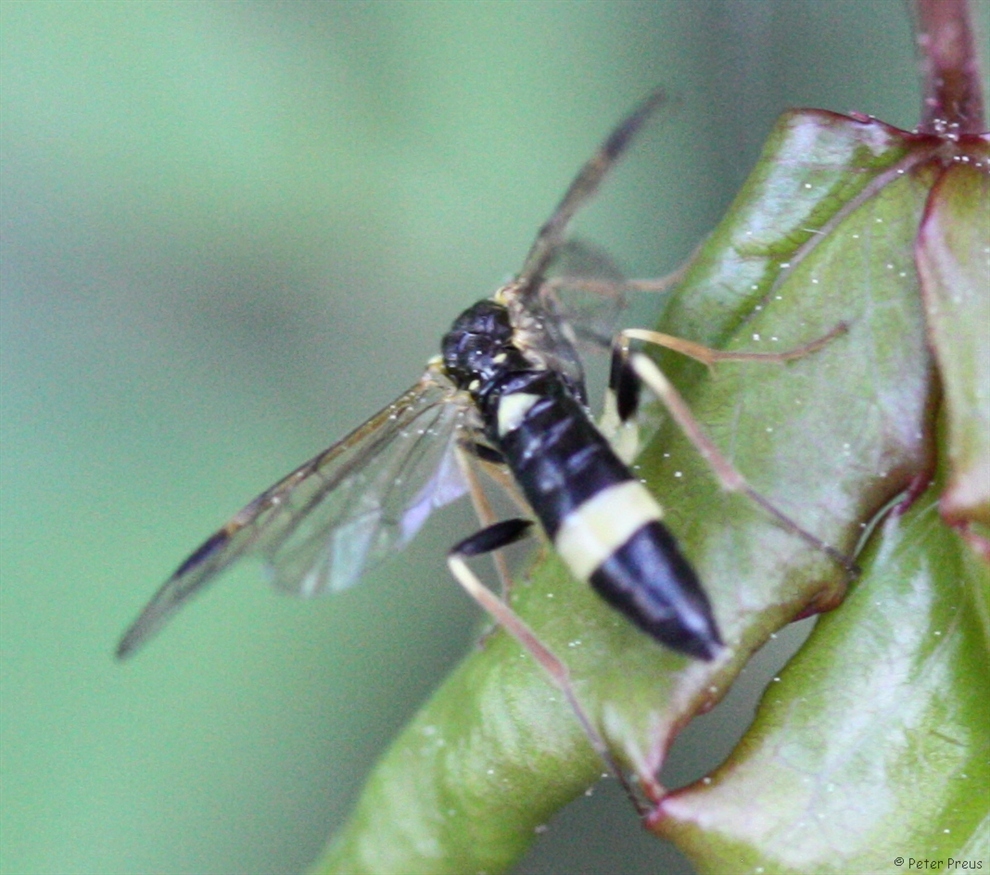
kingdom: Animalia
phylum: Arthropoda
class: Insecta
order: Hymenoptera
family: Tenthredinidae
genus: Allantus
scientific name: Allantus cingulatus
